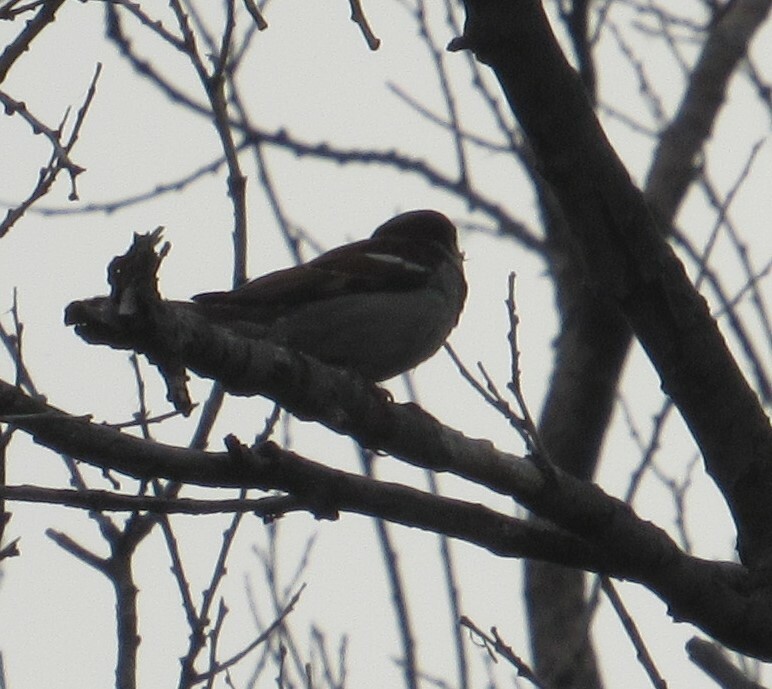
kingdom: Animalia
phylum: Chordata
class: Aves
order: Passeriformes
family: Passeridae
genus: Passer
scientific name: Passer domesticus
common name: House sparrow
